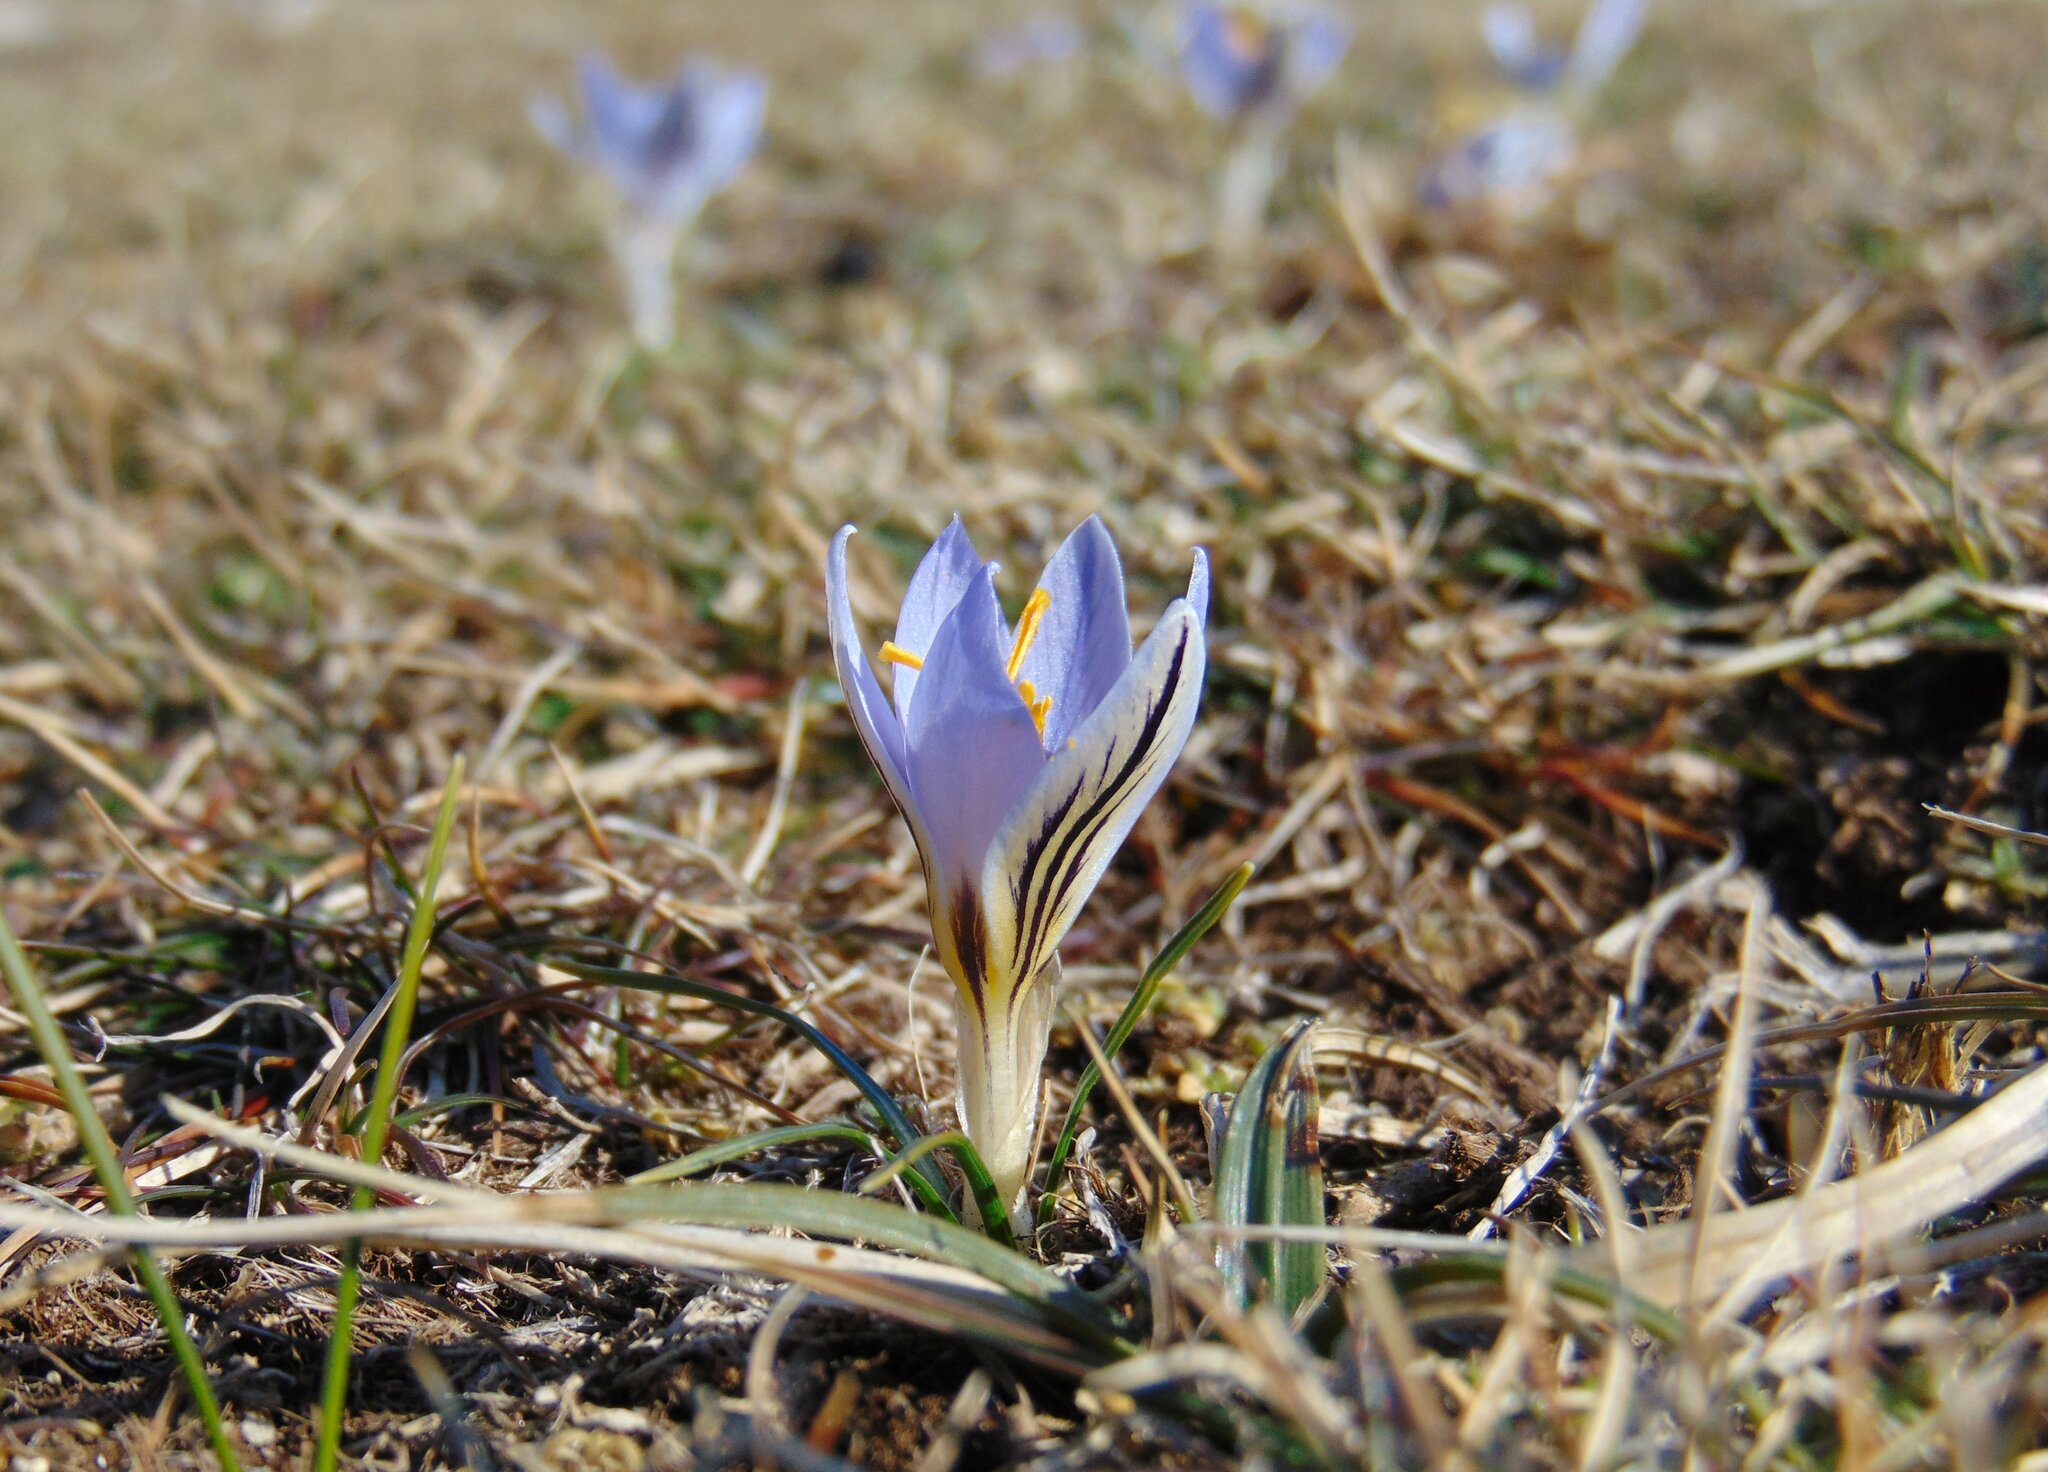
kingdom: Plantae
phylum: Tracheophyta
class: Liliopsida
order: Asparagales
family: Iridaceae
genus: Crocus
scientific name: Crocus variegatus
